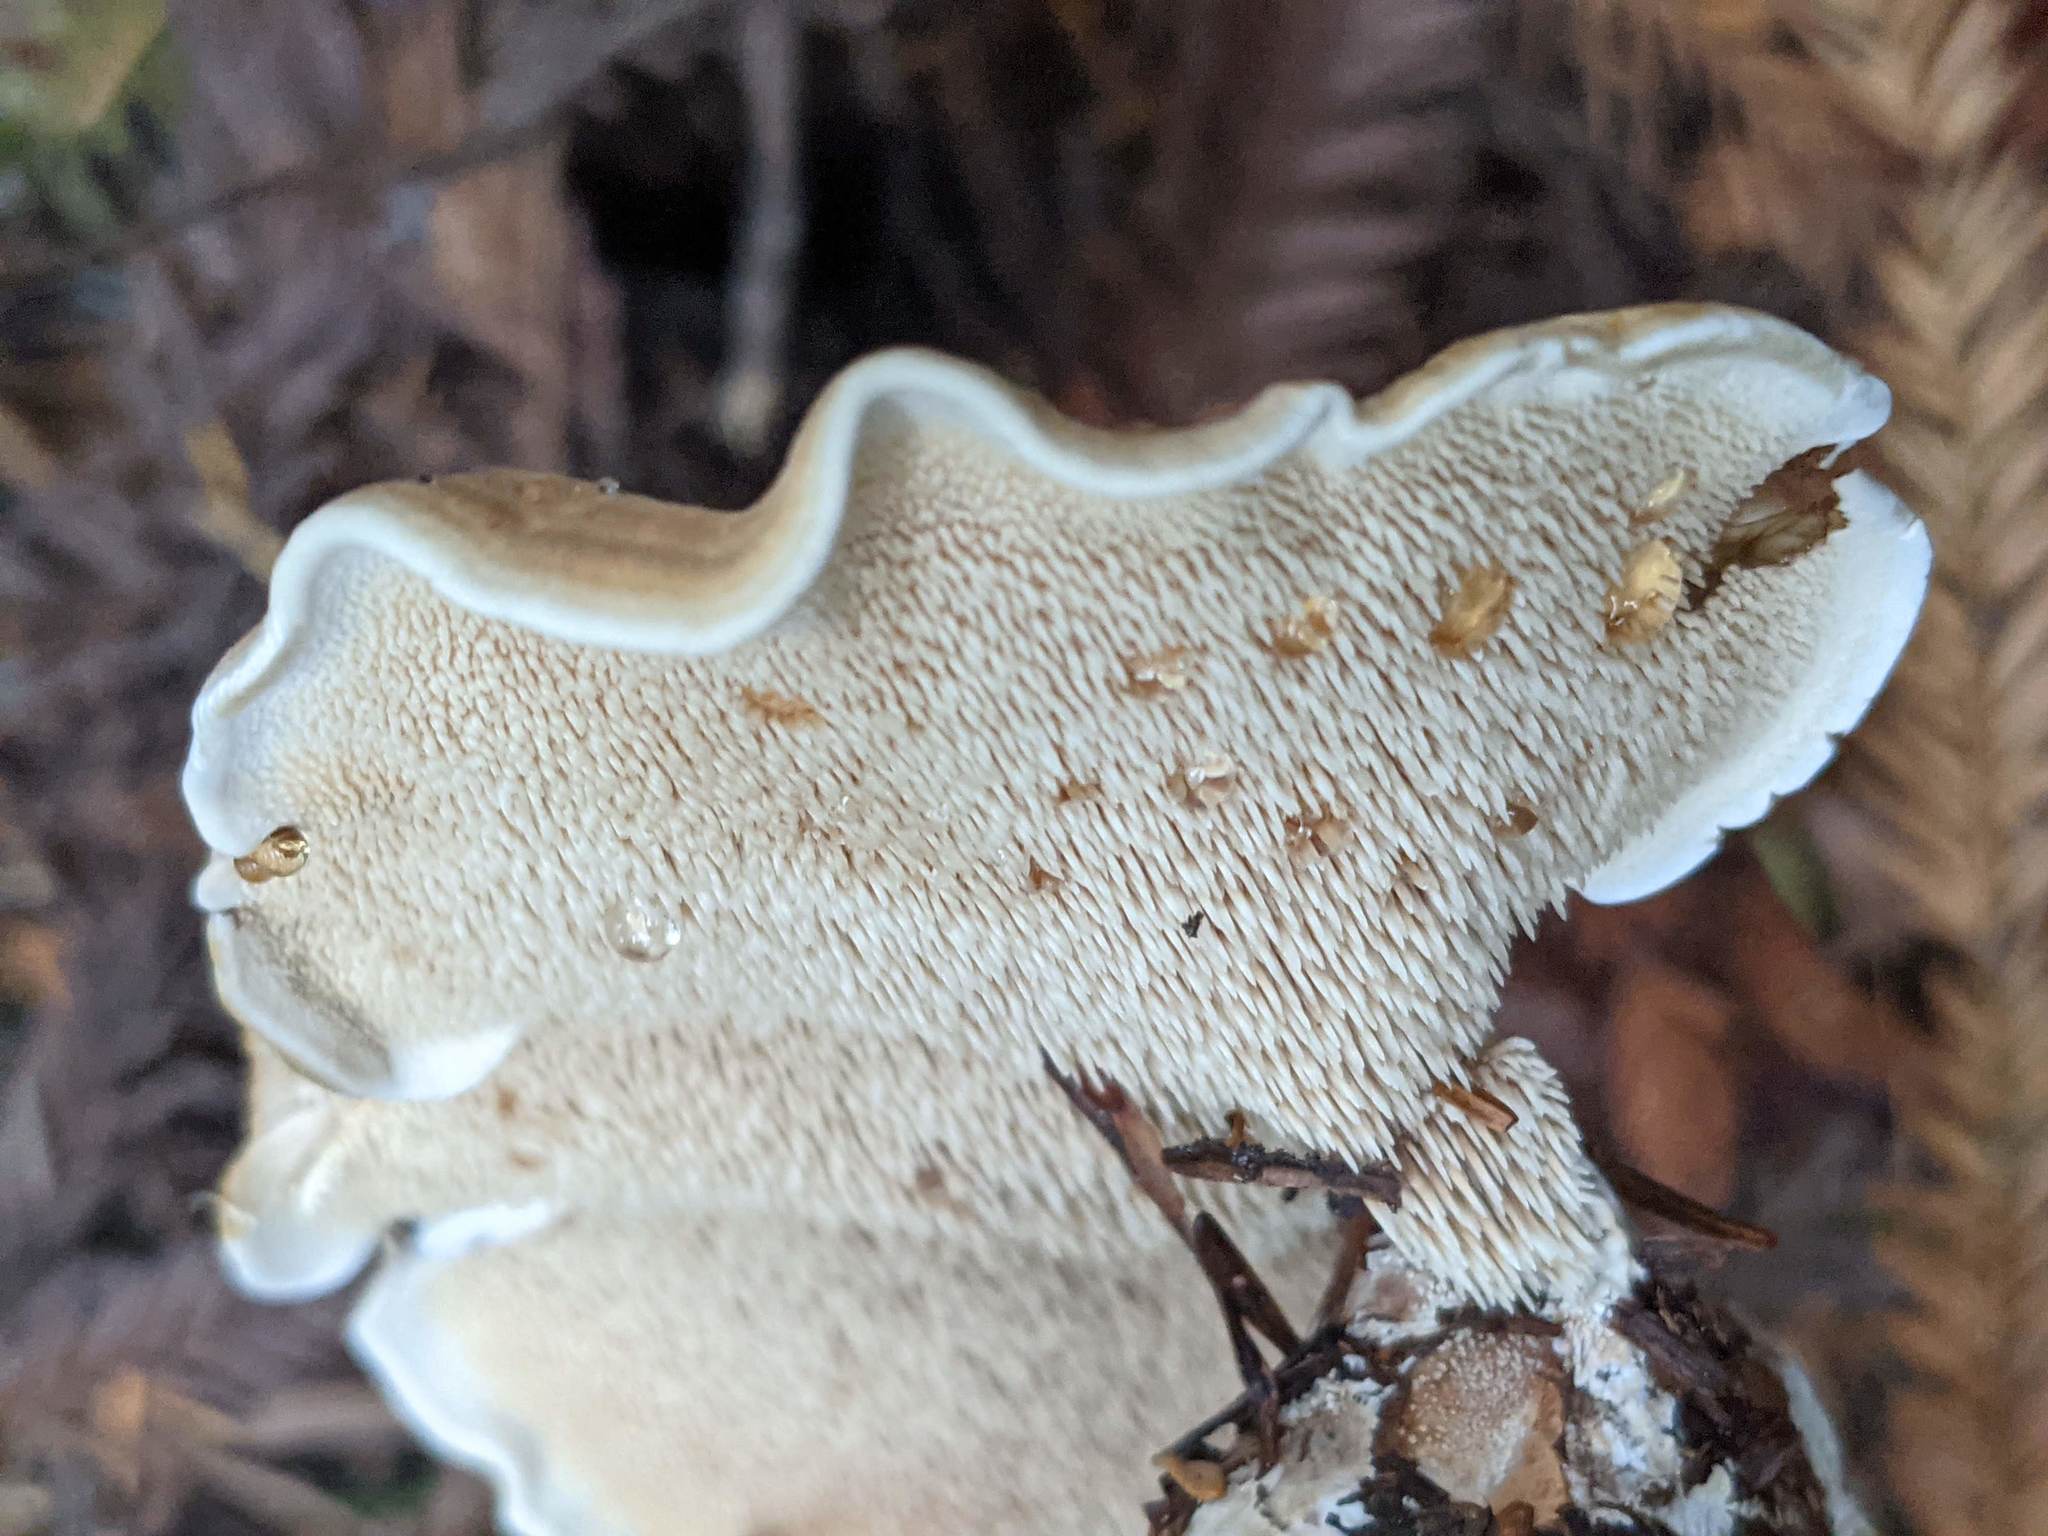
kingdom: Fungi
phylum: Basidiomycota
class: Agaricomycetes
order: Thelephorales
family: Bankeraceae
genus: Sarcodon
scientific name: Sarcodon stereosarcinon
